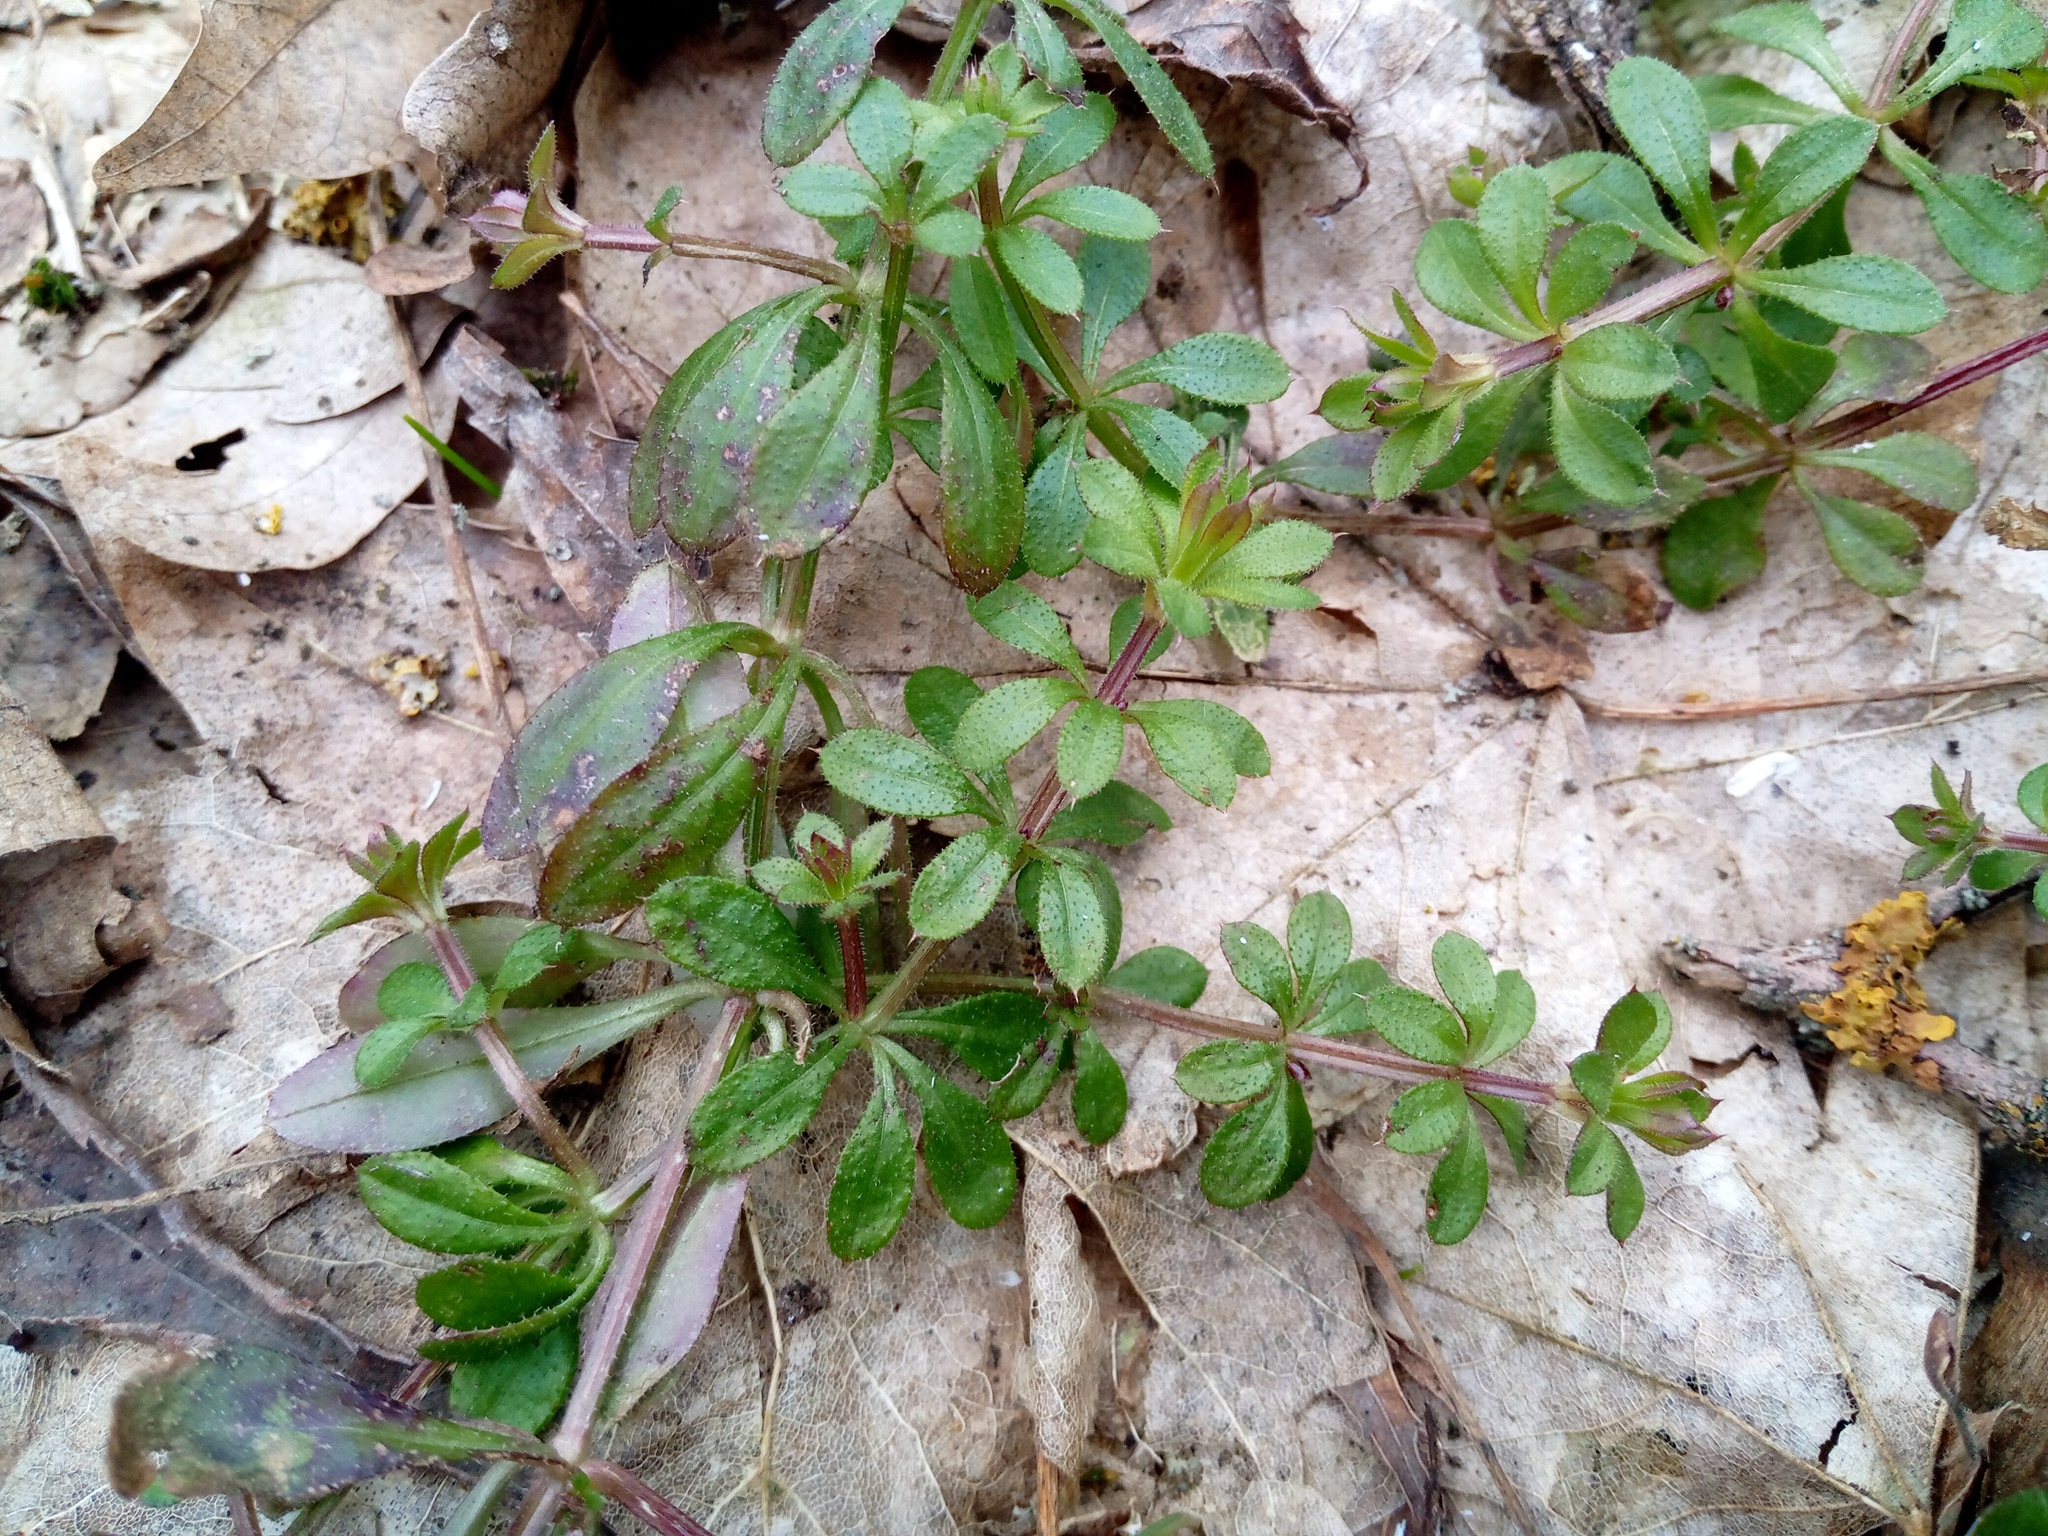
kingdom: Plantae
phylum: Tracheophyta
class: Magnoliopsida
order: Gentianales
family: Rubiaceae
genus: Galium
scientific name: Galium aparine
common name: Cleavers
